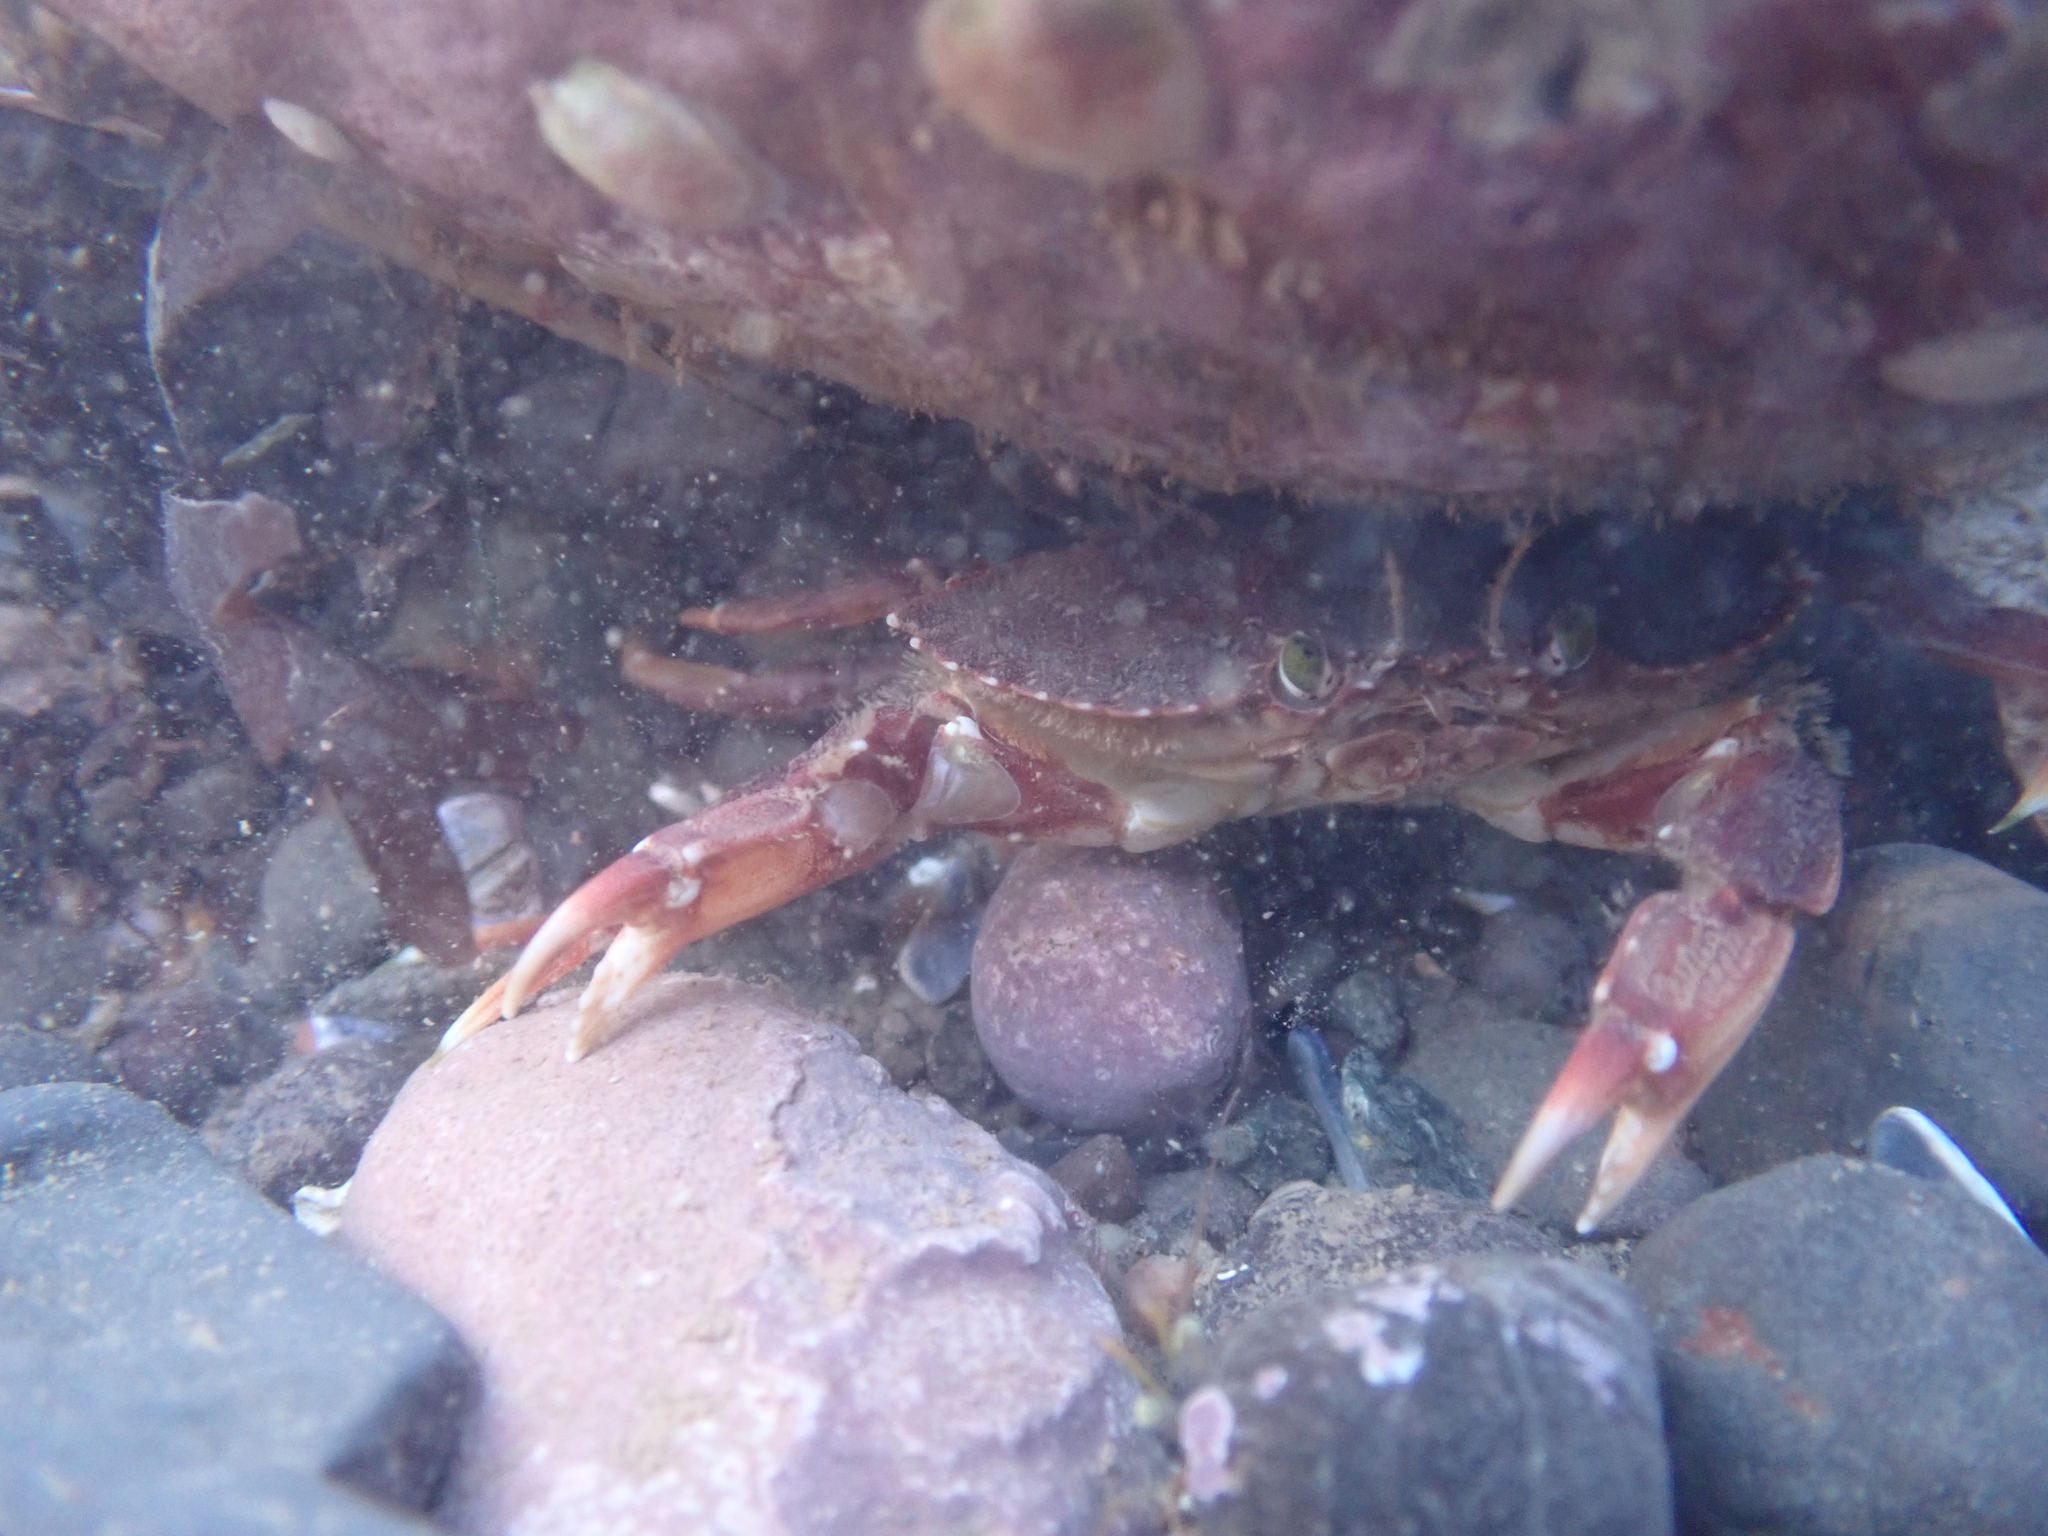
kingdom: Animalia
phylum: Arthropoda
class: Malacostraca
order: Decapoda
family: Cancridae
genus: Cancer
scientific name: Cancer irroratus
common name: Atlantic rock crab
